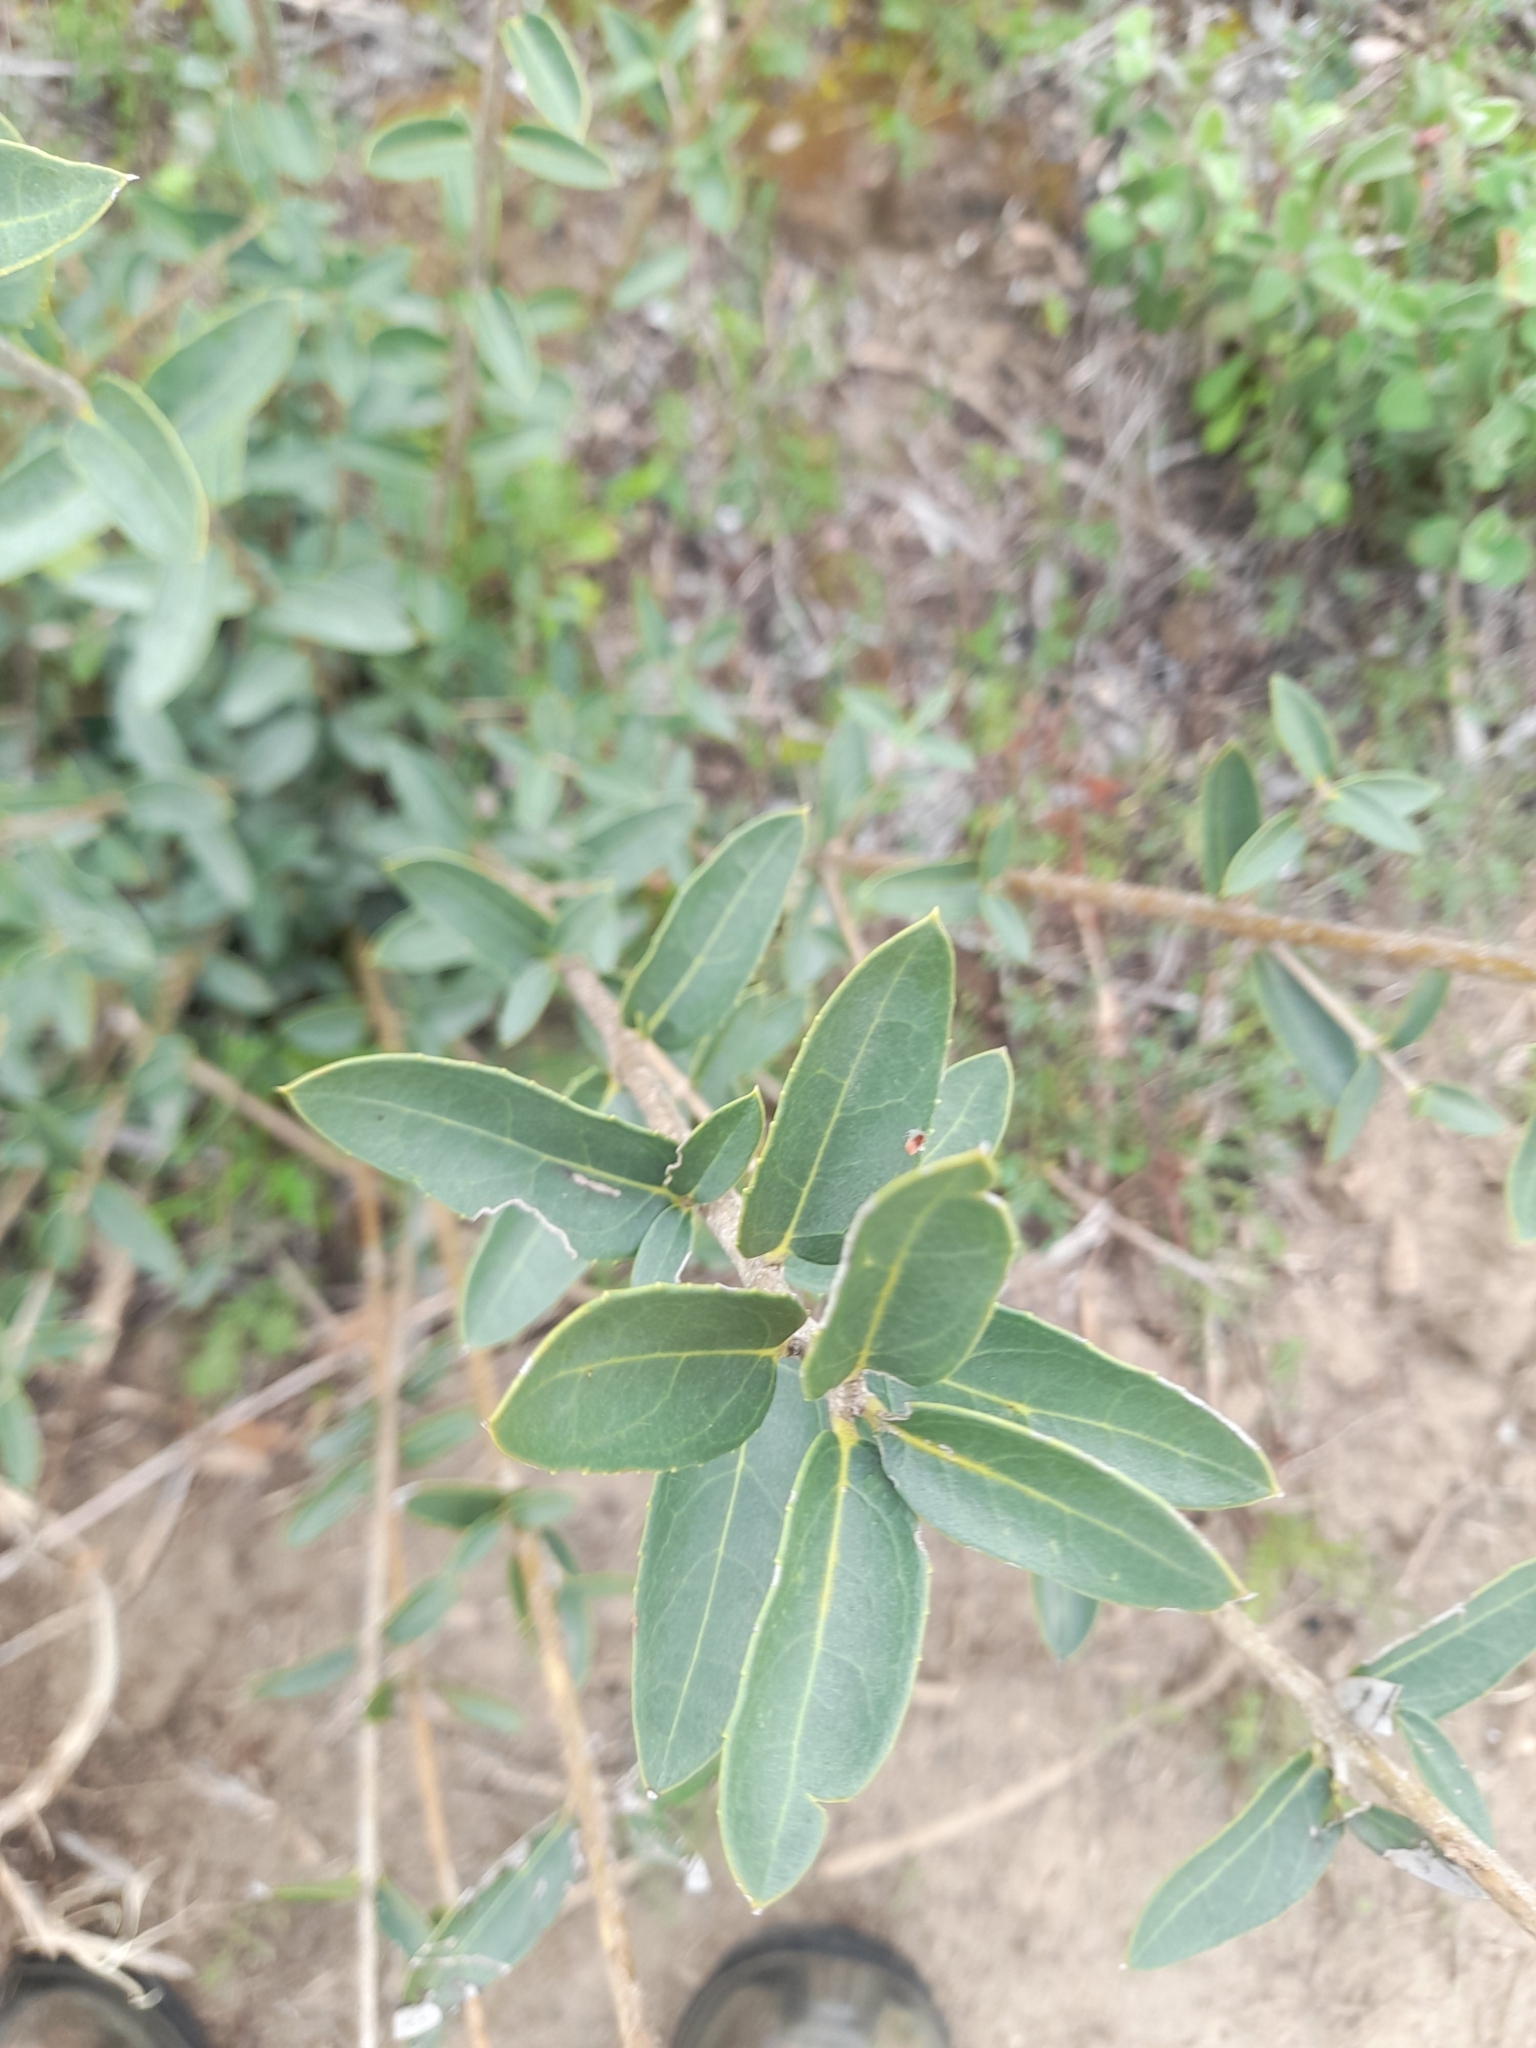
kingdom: Plantae
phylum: Tracheophyta
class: Magnoliopsida
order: Lamiales
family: Oleaceae
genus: Phillyrea
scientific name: Phillyrea latifolia
